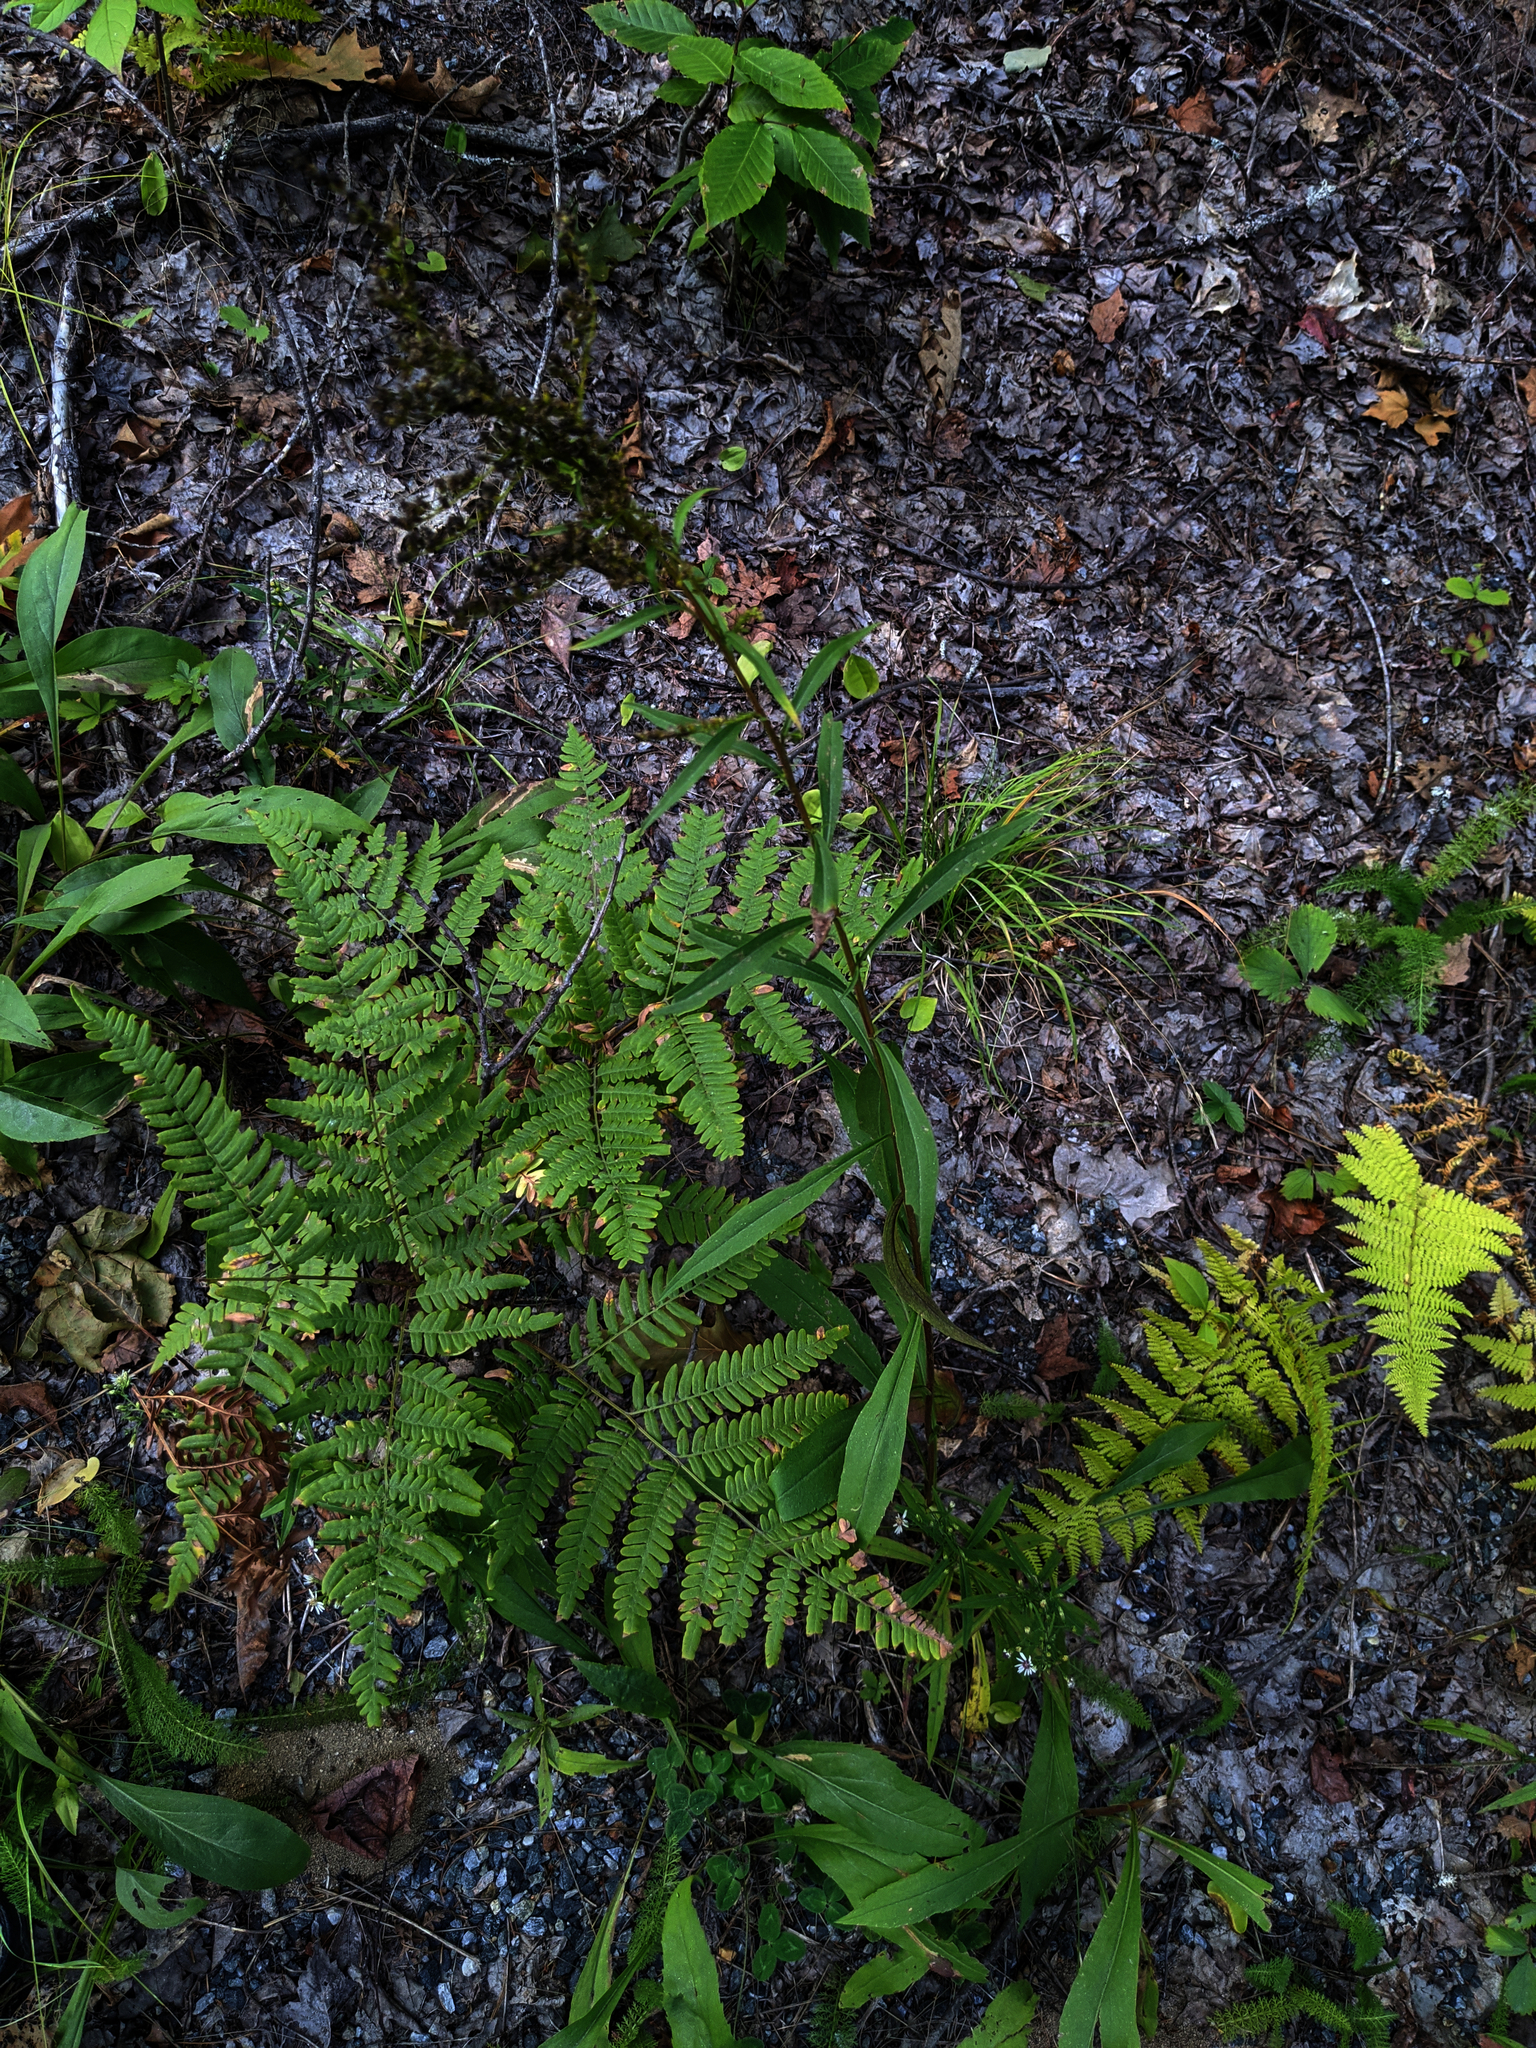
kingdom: Plantae
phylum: Tracheophyta
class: Polypodiopsida
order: Polypodiales
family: Dennstaedtiaceae
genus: Pteridium
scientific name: Pteridium aquilinum
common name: Bracken
